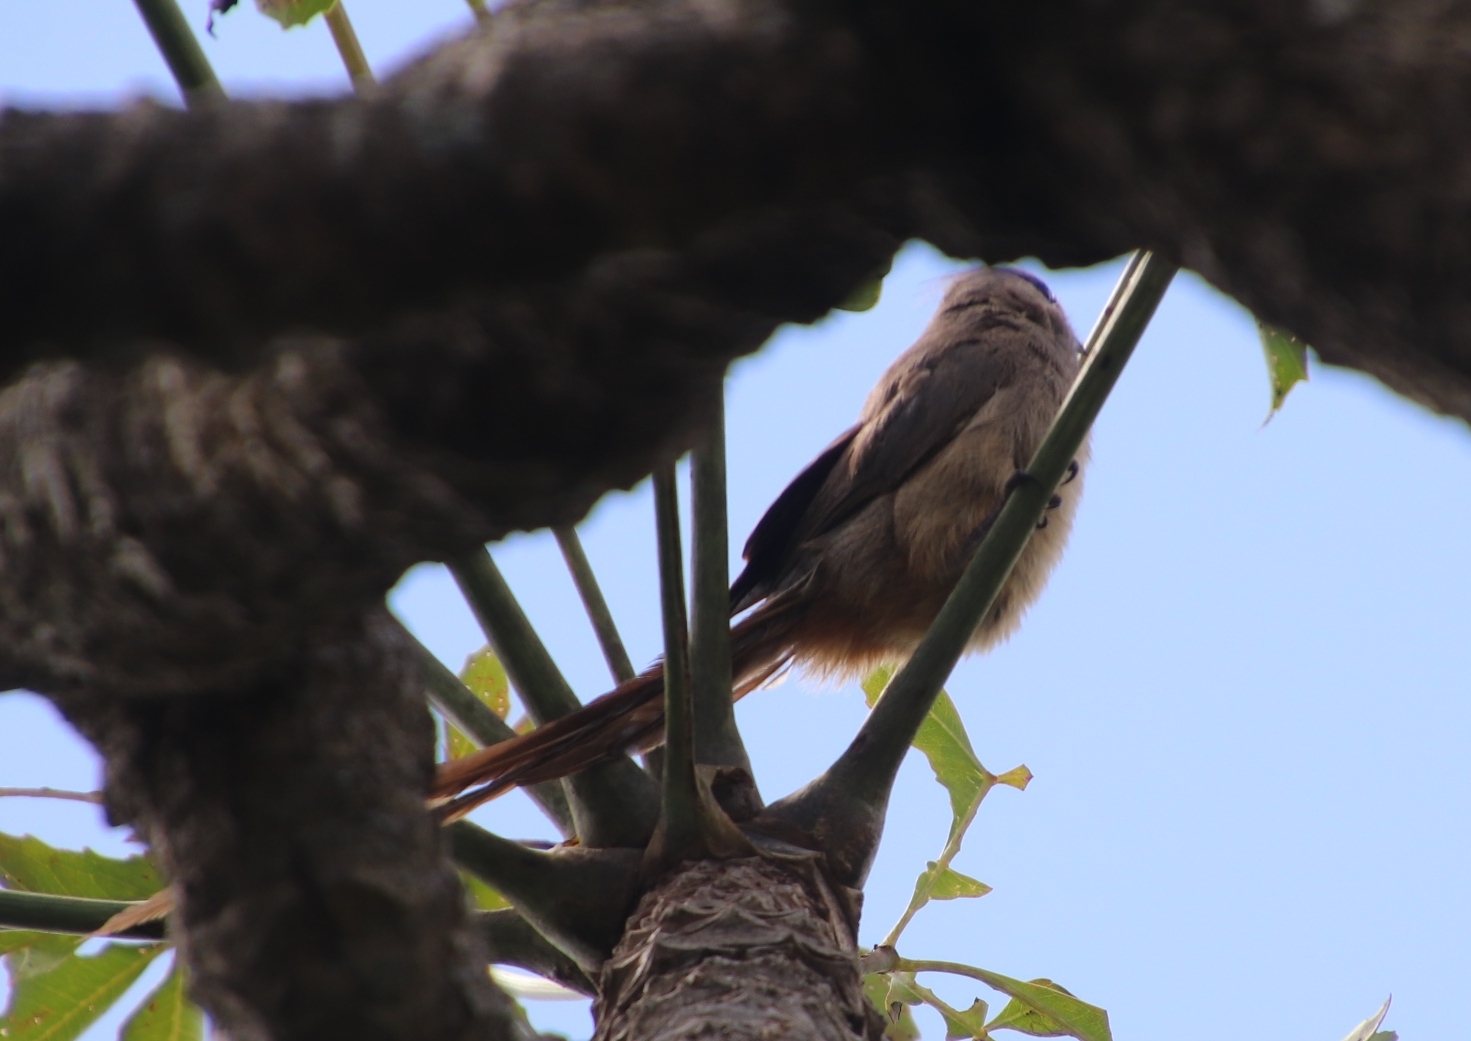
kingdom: Animalia
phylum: Chordata
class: Aves
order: Coliiformes
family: Coliidae
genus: Colius
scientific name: Colius striatus
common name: Speckled mousebird
